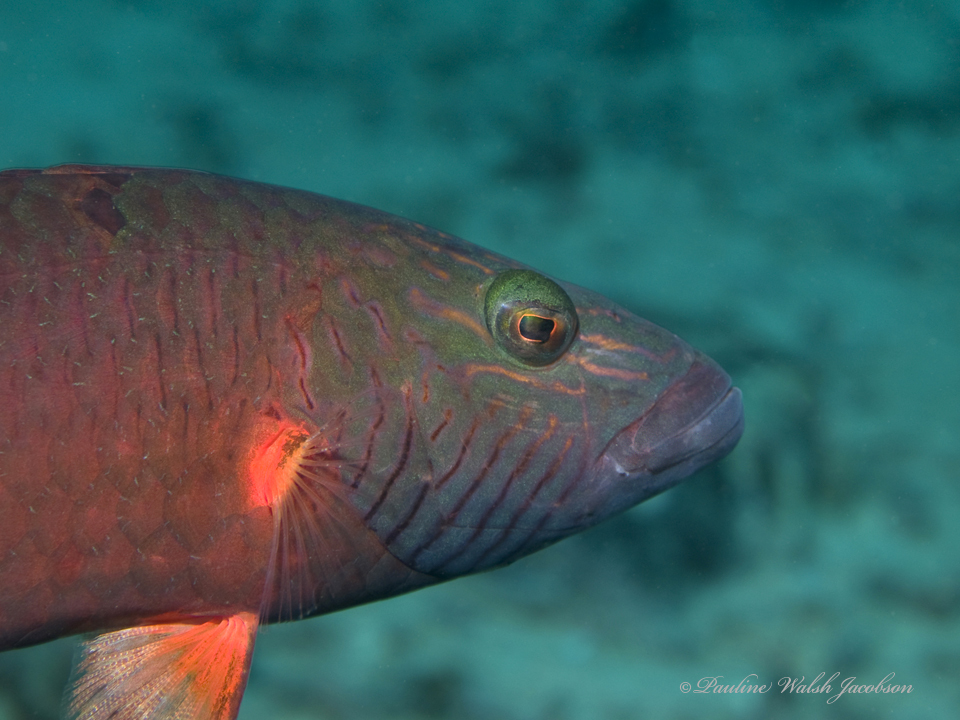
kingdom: Animalia
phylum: Chordata
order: Perciformes
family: Labridae
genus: Oxycheilinus
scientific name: Oxycheilinus digramma
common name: Bandcheek wrasse
